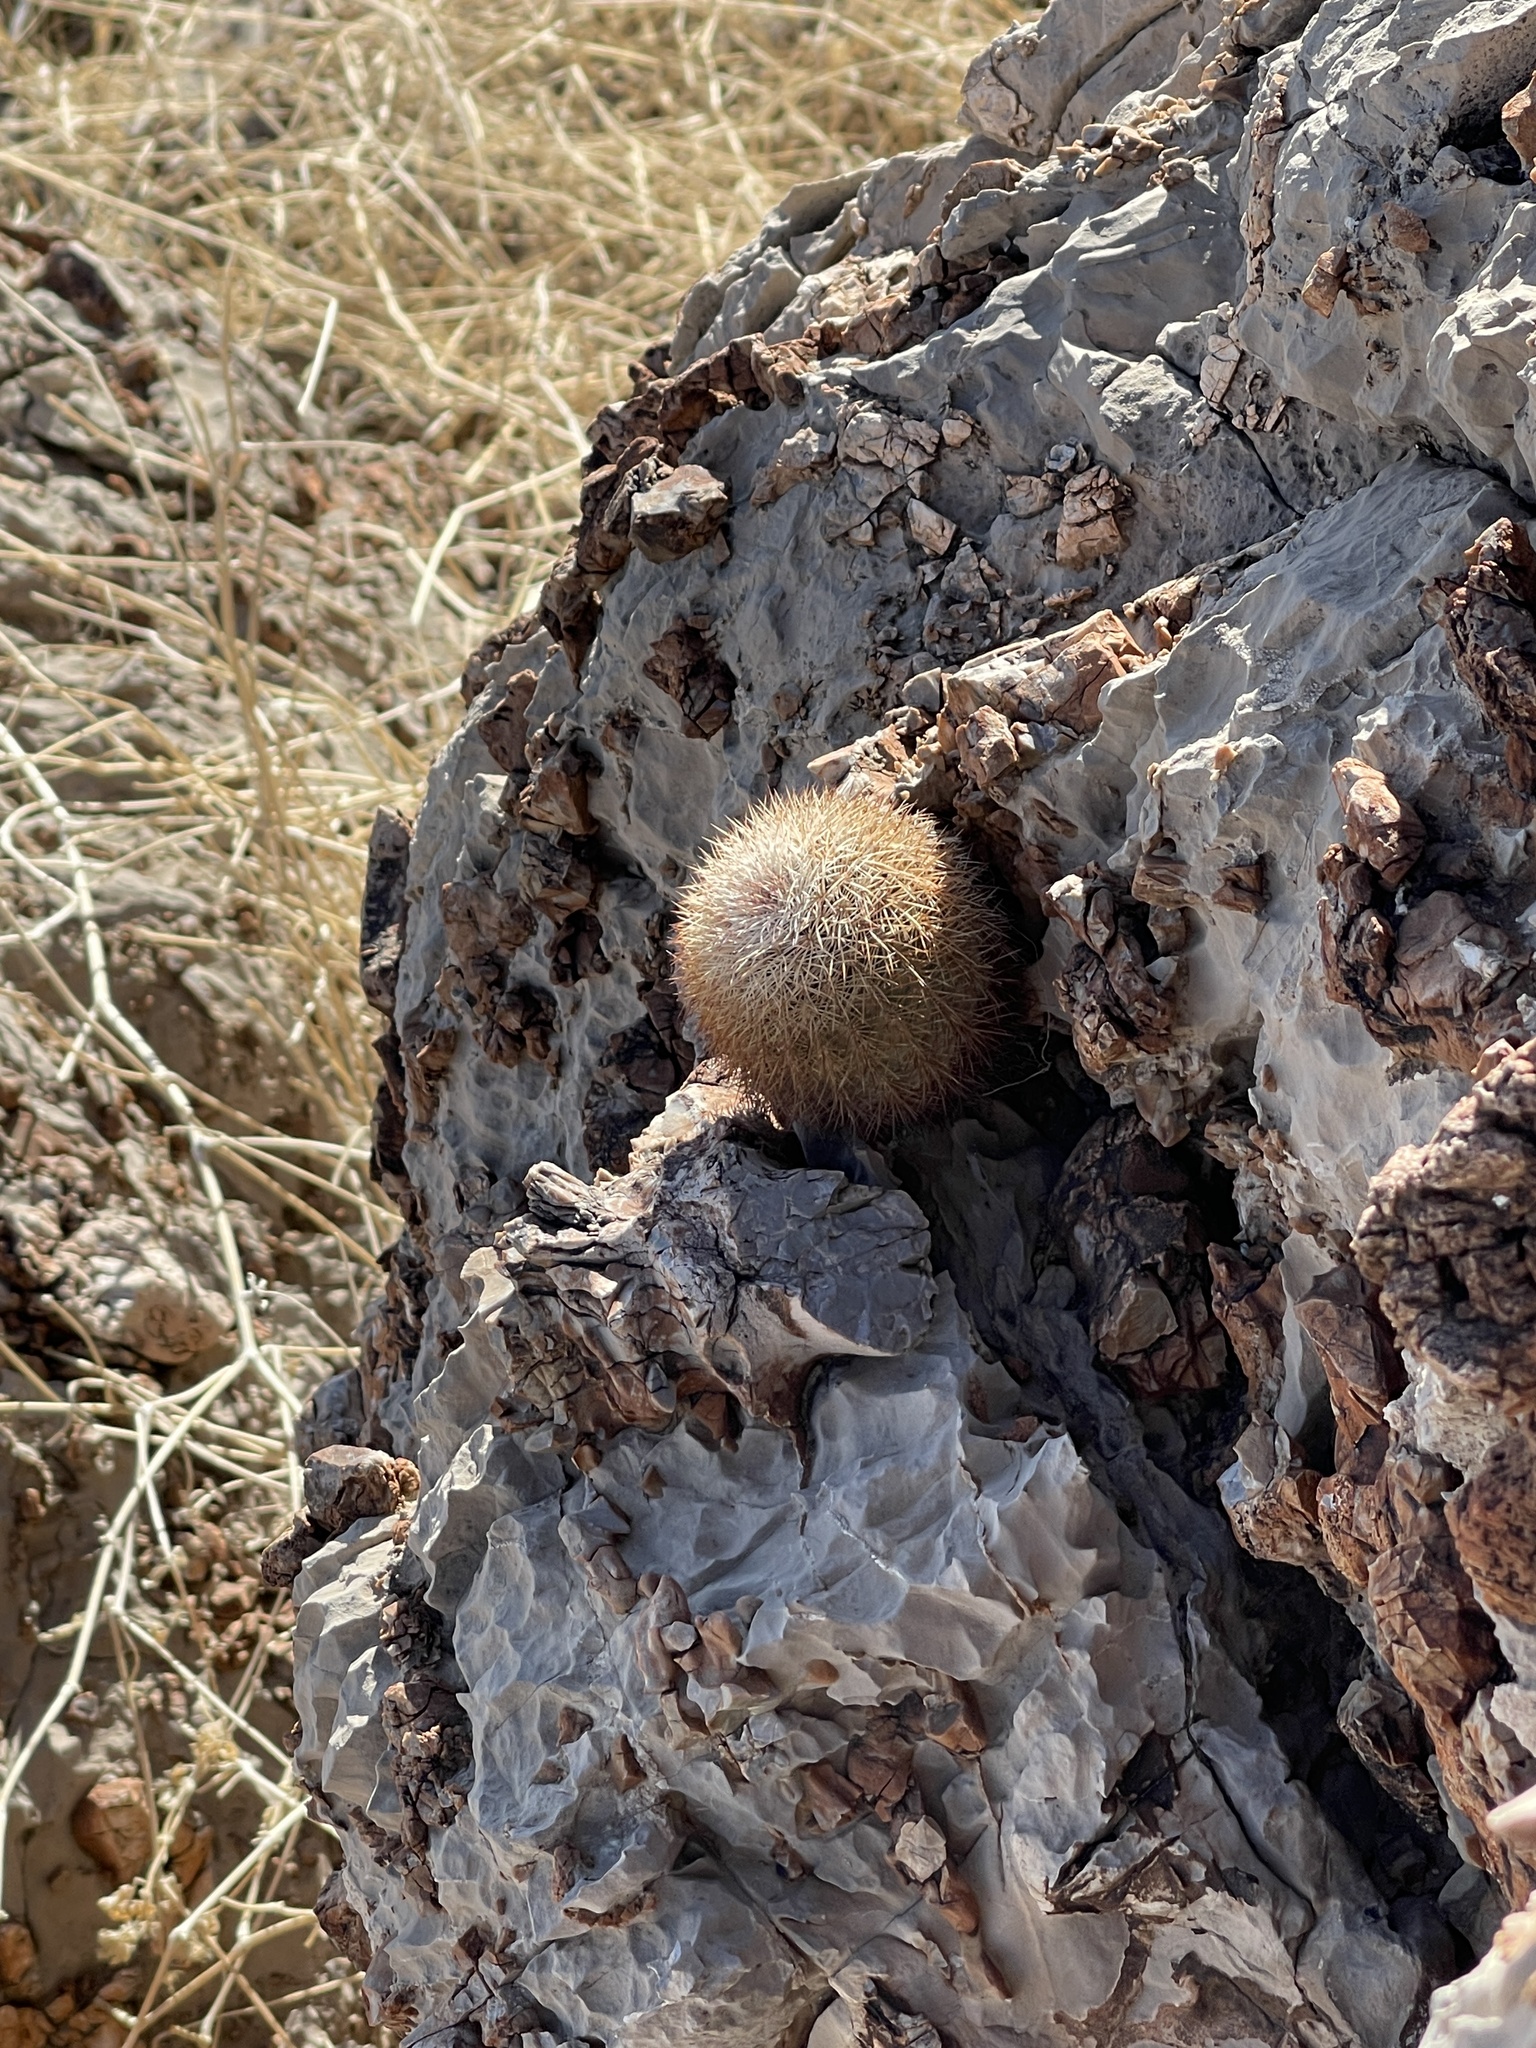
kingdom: Plantae
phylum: Tracheophyta
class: Magnoliopsida
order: Caryophyllales
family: Cactaceae
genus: Echinocereus
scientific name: Echinocereus dasyacanthus
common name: Spiny hedgehog cactus
